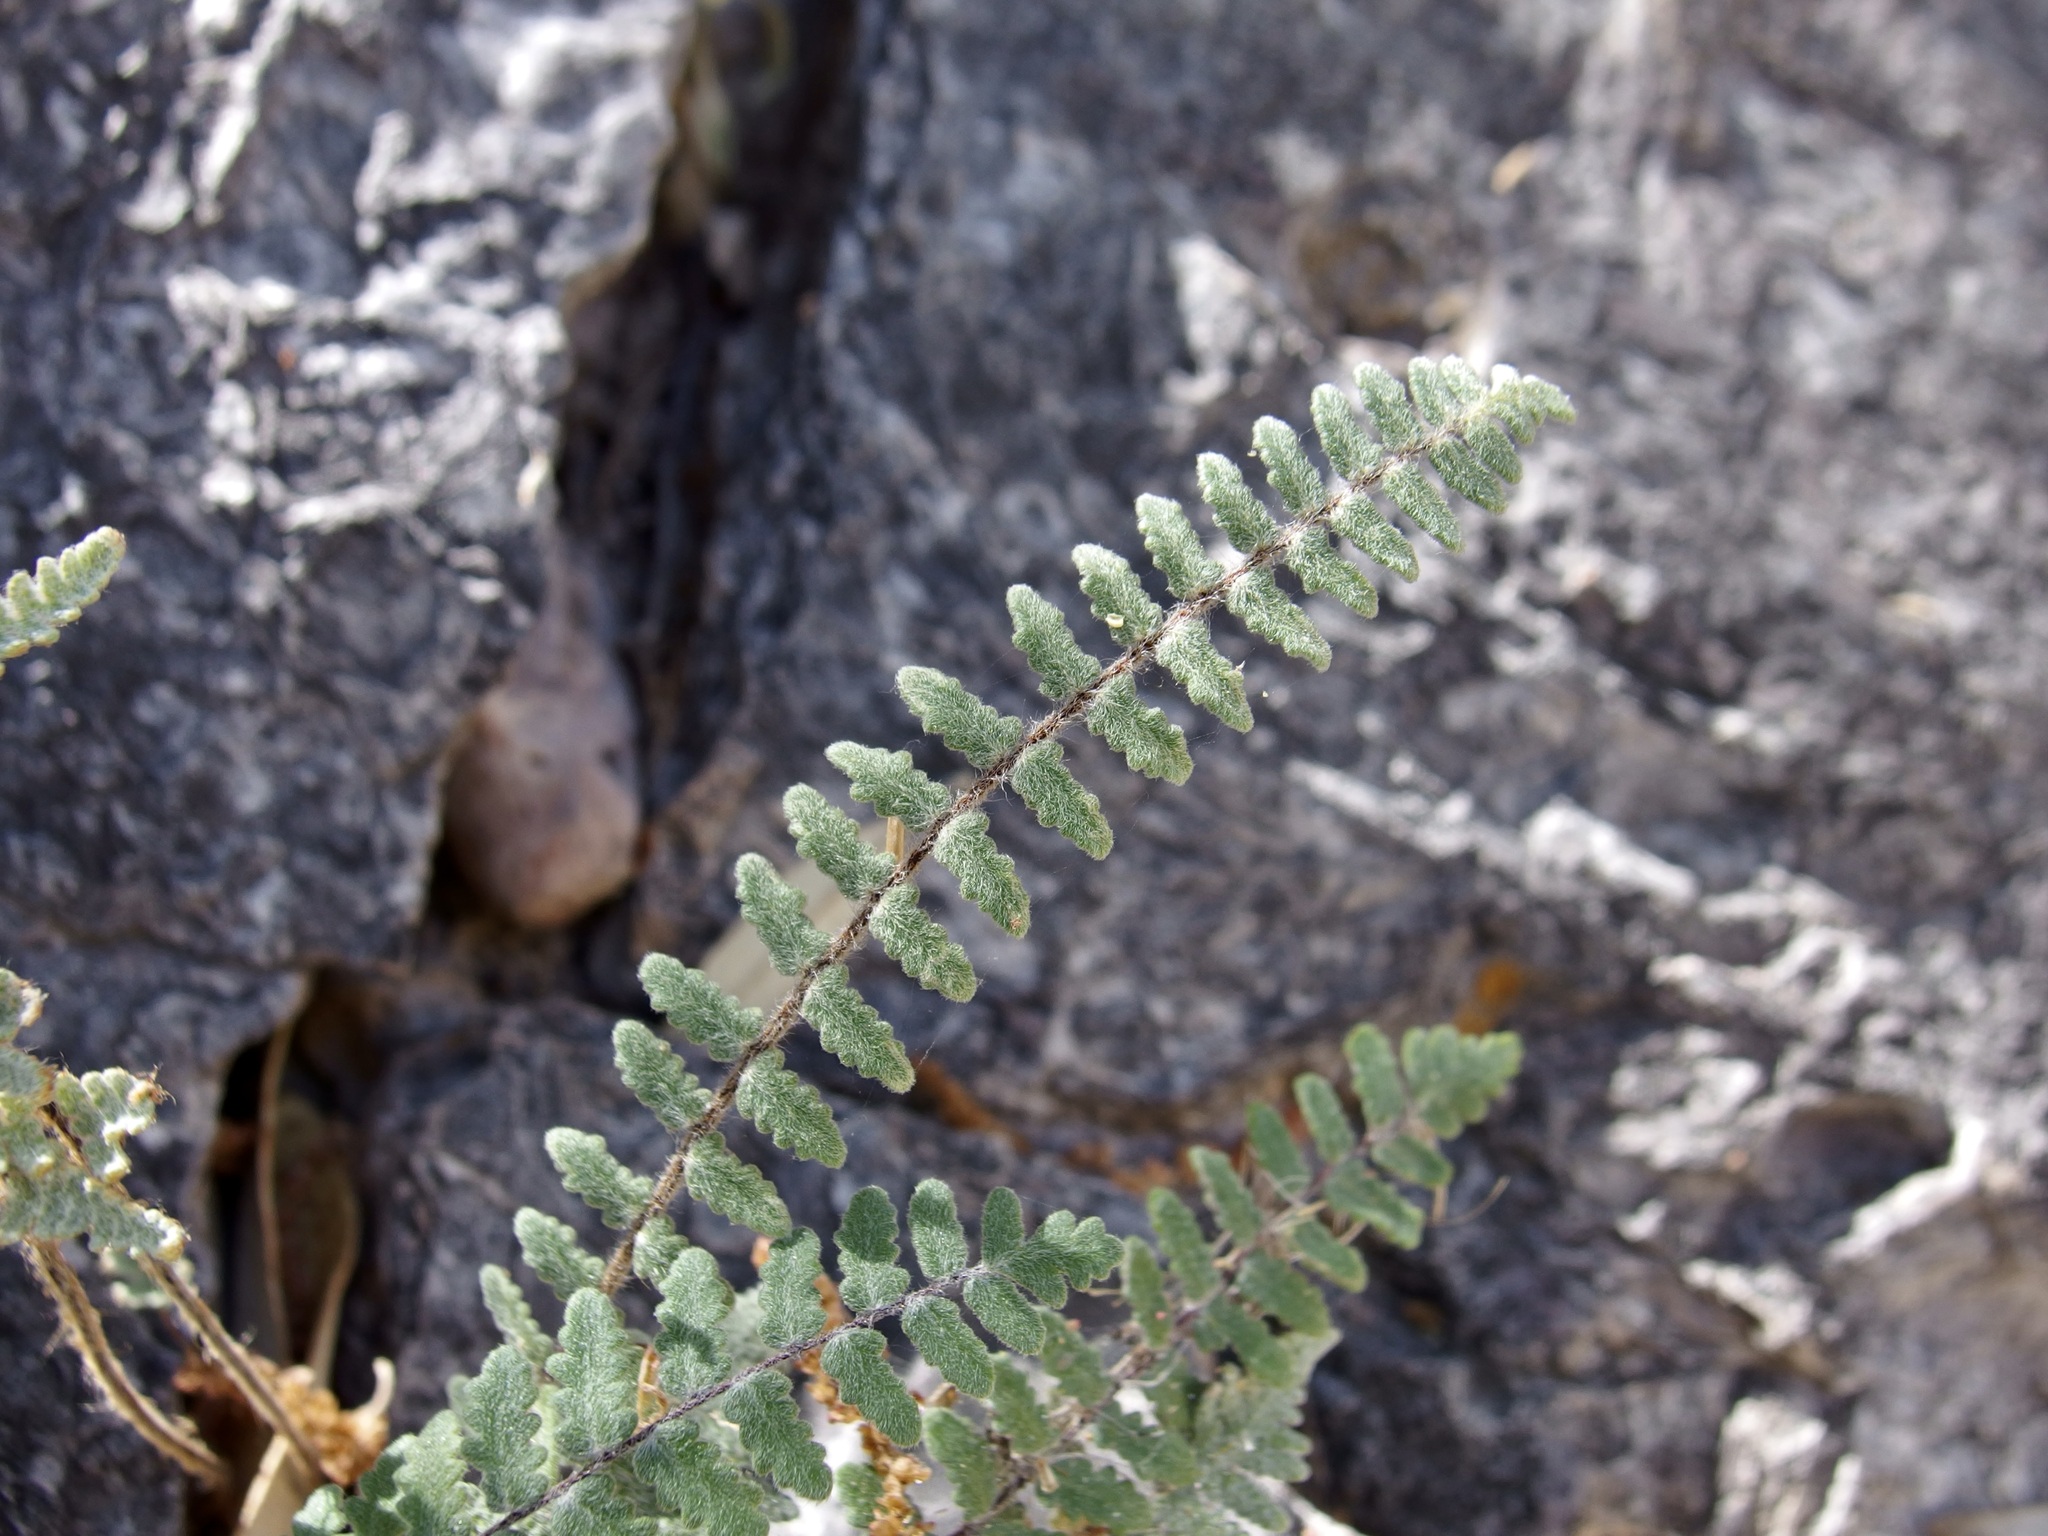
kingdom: Plantae
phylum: Tracheophyta
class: Polypodiopsida
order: Polypodiales
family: Pteridaceae
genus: Myriopteris
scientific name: Myriopteris aurea
